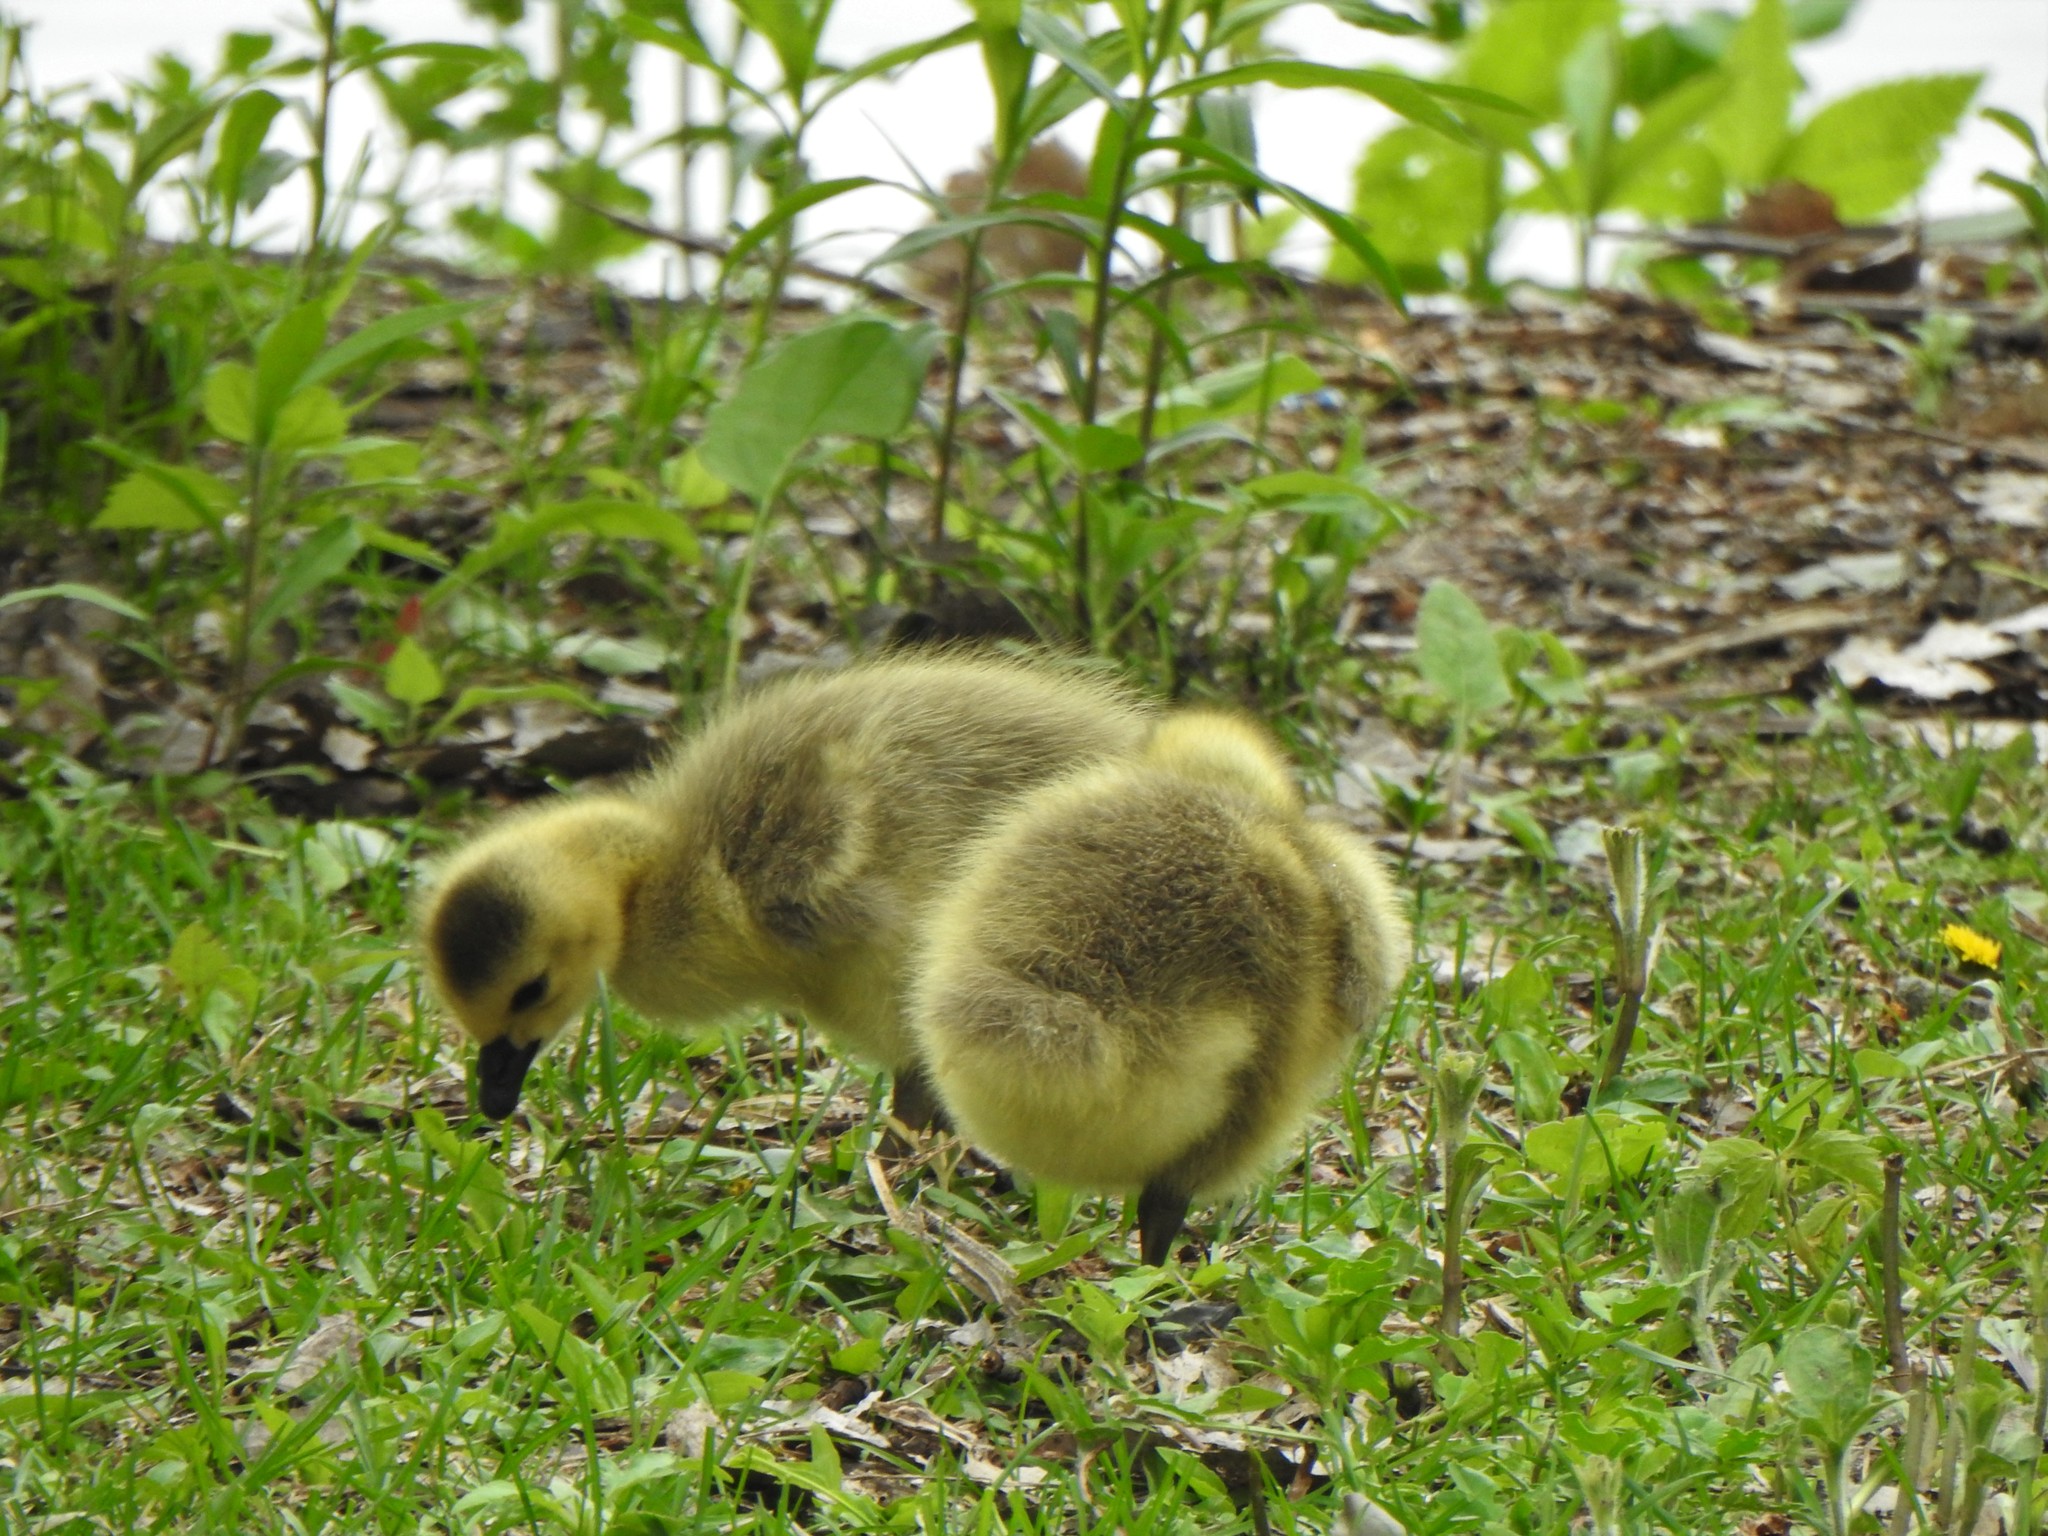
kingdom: Animalia
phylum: Chordata
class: Aves
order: Anseriformes
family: Anatidae
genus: Branta
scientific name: Branta canadensis
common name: Canada goose
